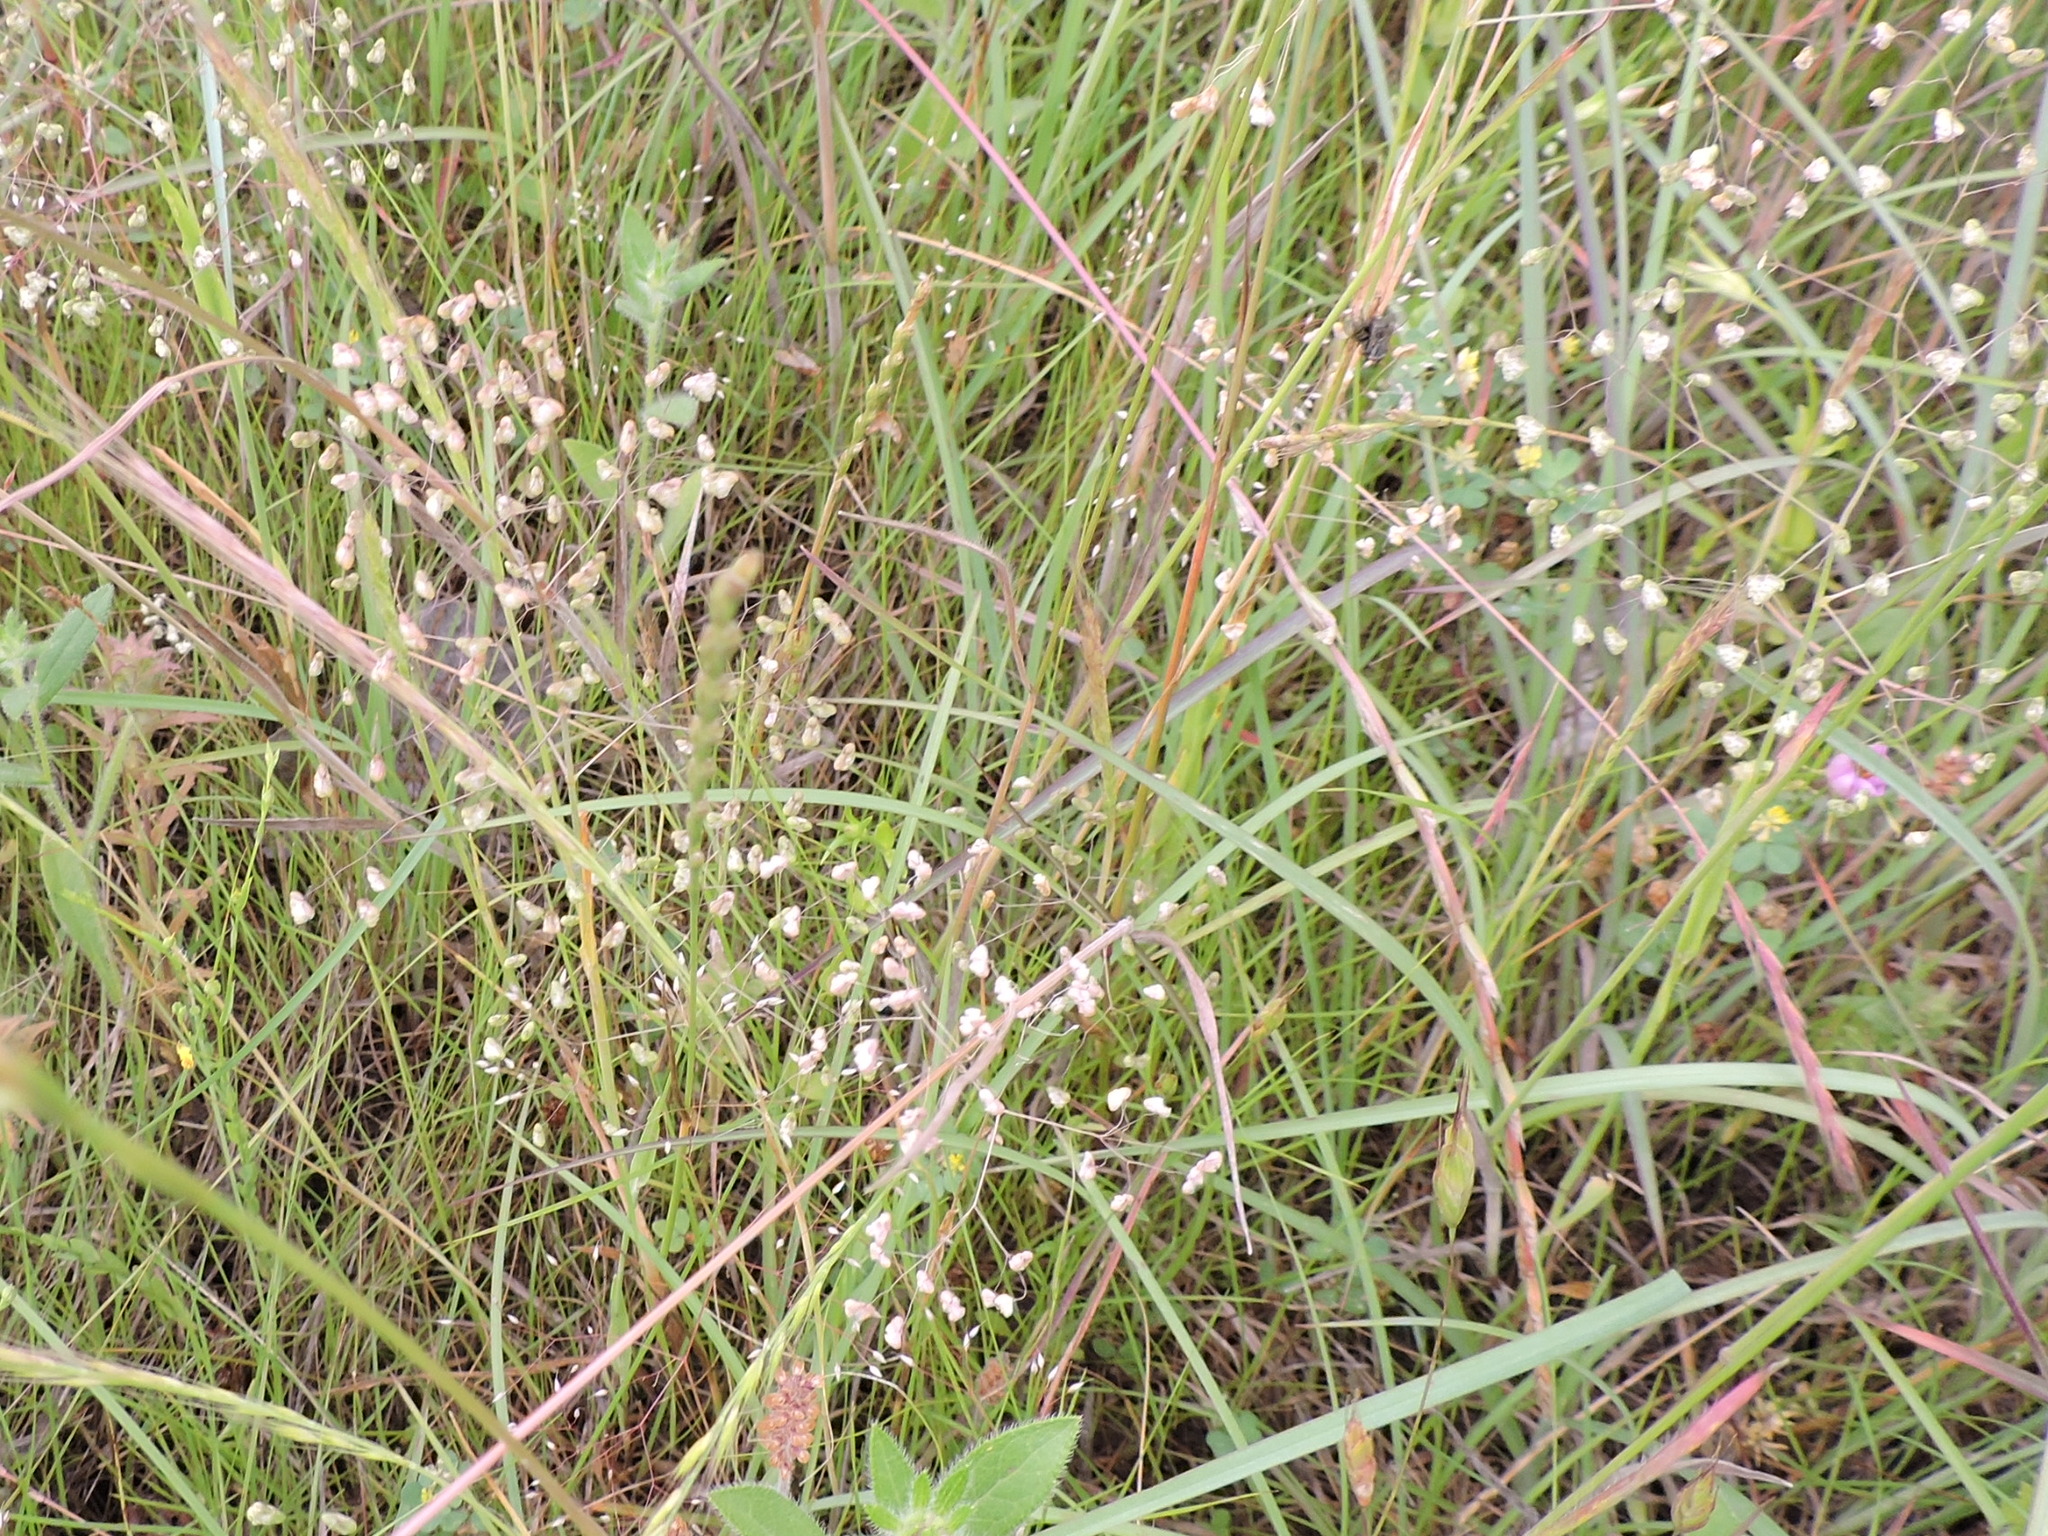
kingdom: Plantae
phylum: Tracheophyta
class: Liliopsida
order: Poales
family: Poaceae
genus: Briza
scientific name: Briza minor
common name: Lesser quaking-grass
